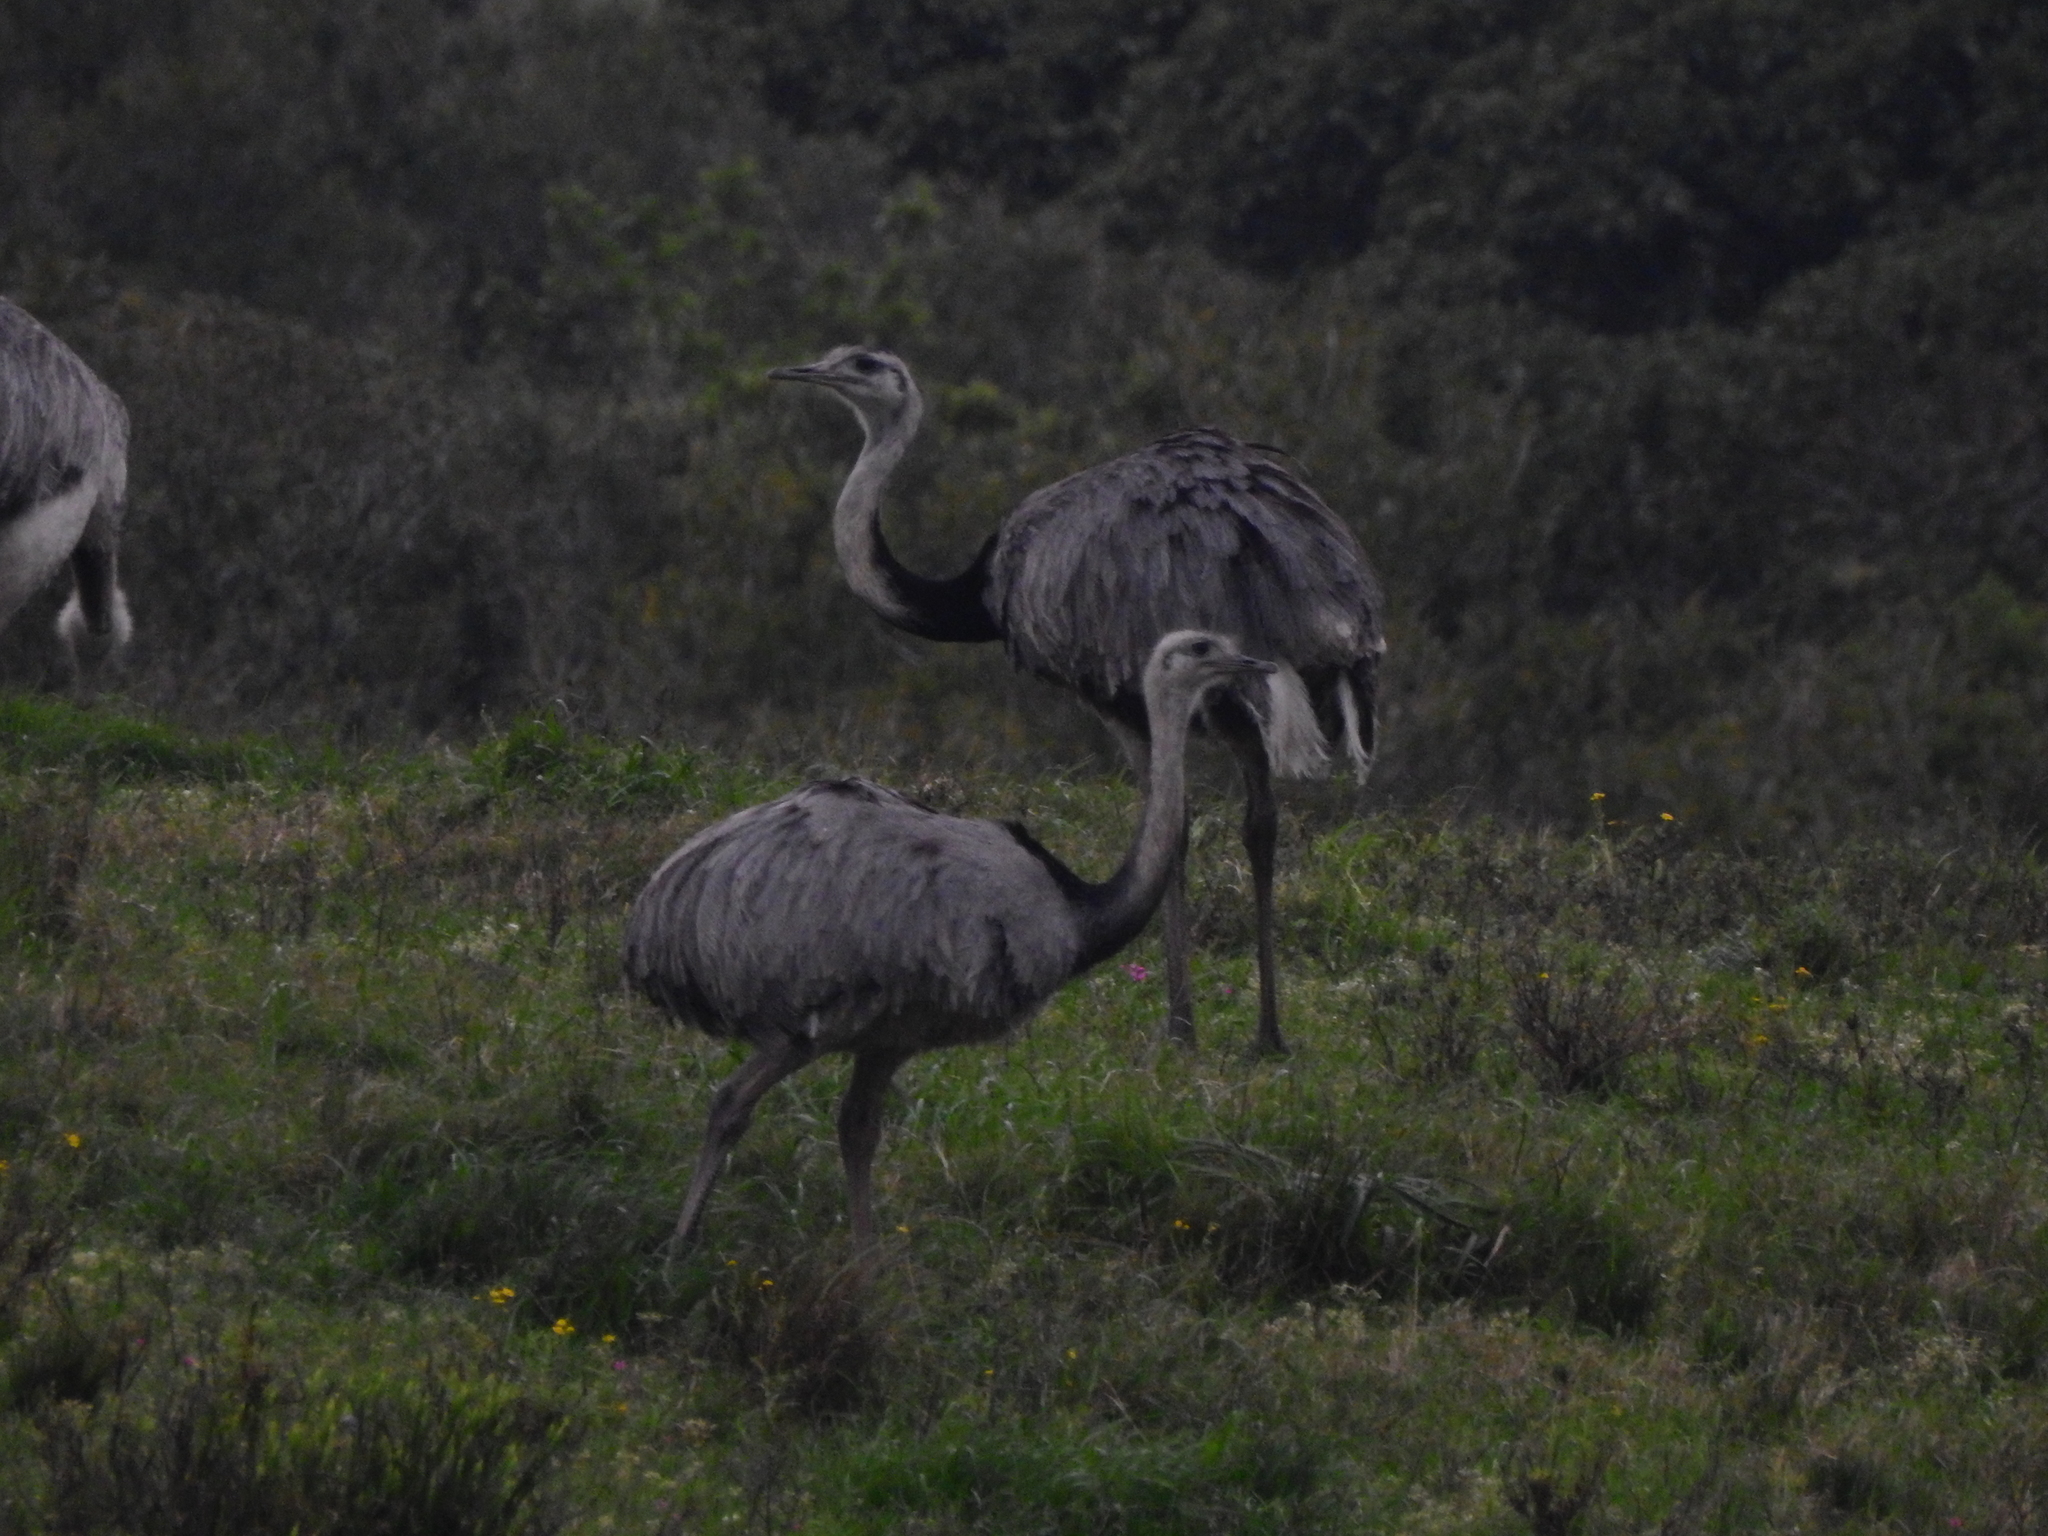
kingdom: Animalia
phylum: Chordata
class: Aves
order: Rheiformes
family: Rheidae
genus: Rhea
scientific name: Rhea americana
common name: Greater rhea
